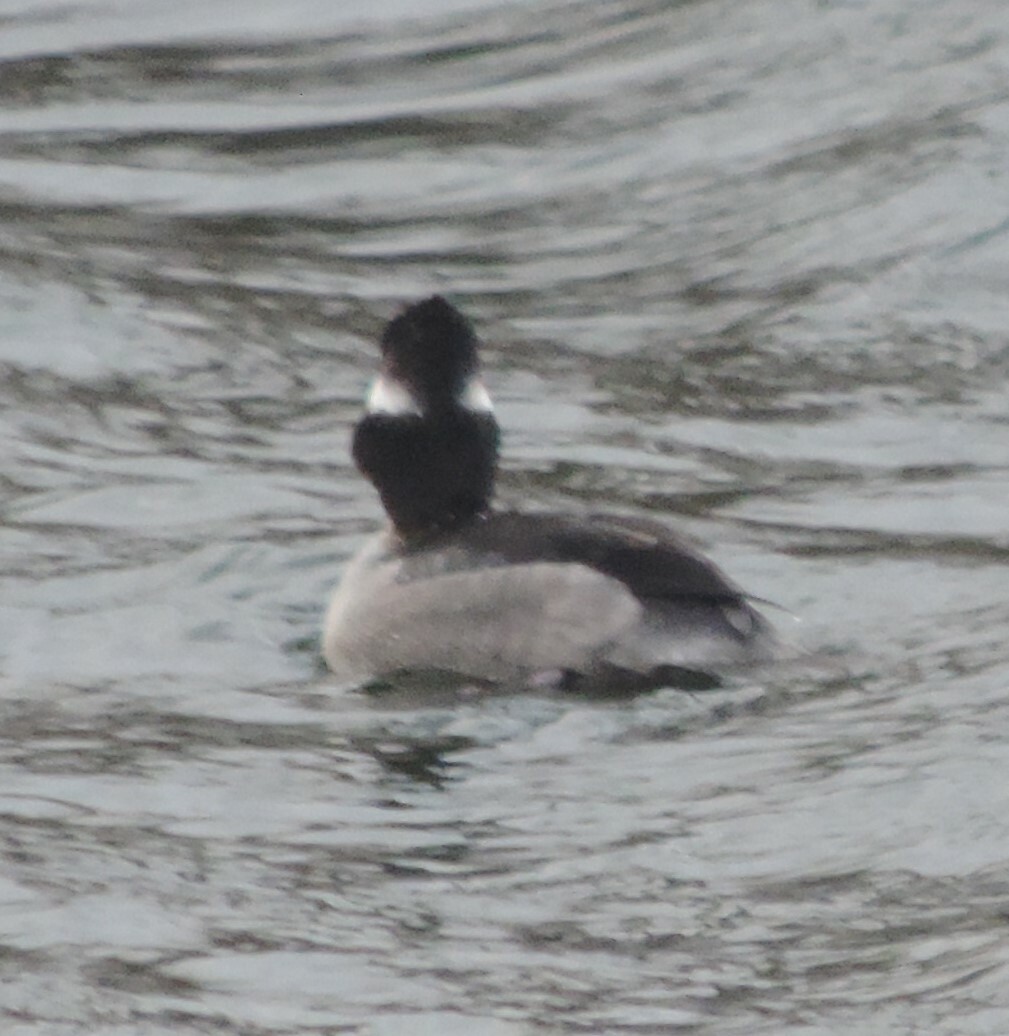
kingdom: Animalia
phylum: Chordata
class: Aves
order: Anseriformes
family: Anatidae
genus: Bucephala
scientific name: Bucephala albeola
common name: Bufflehead
